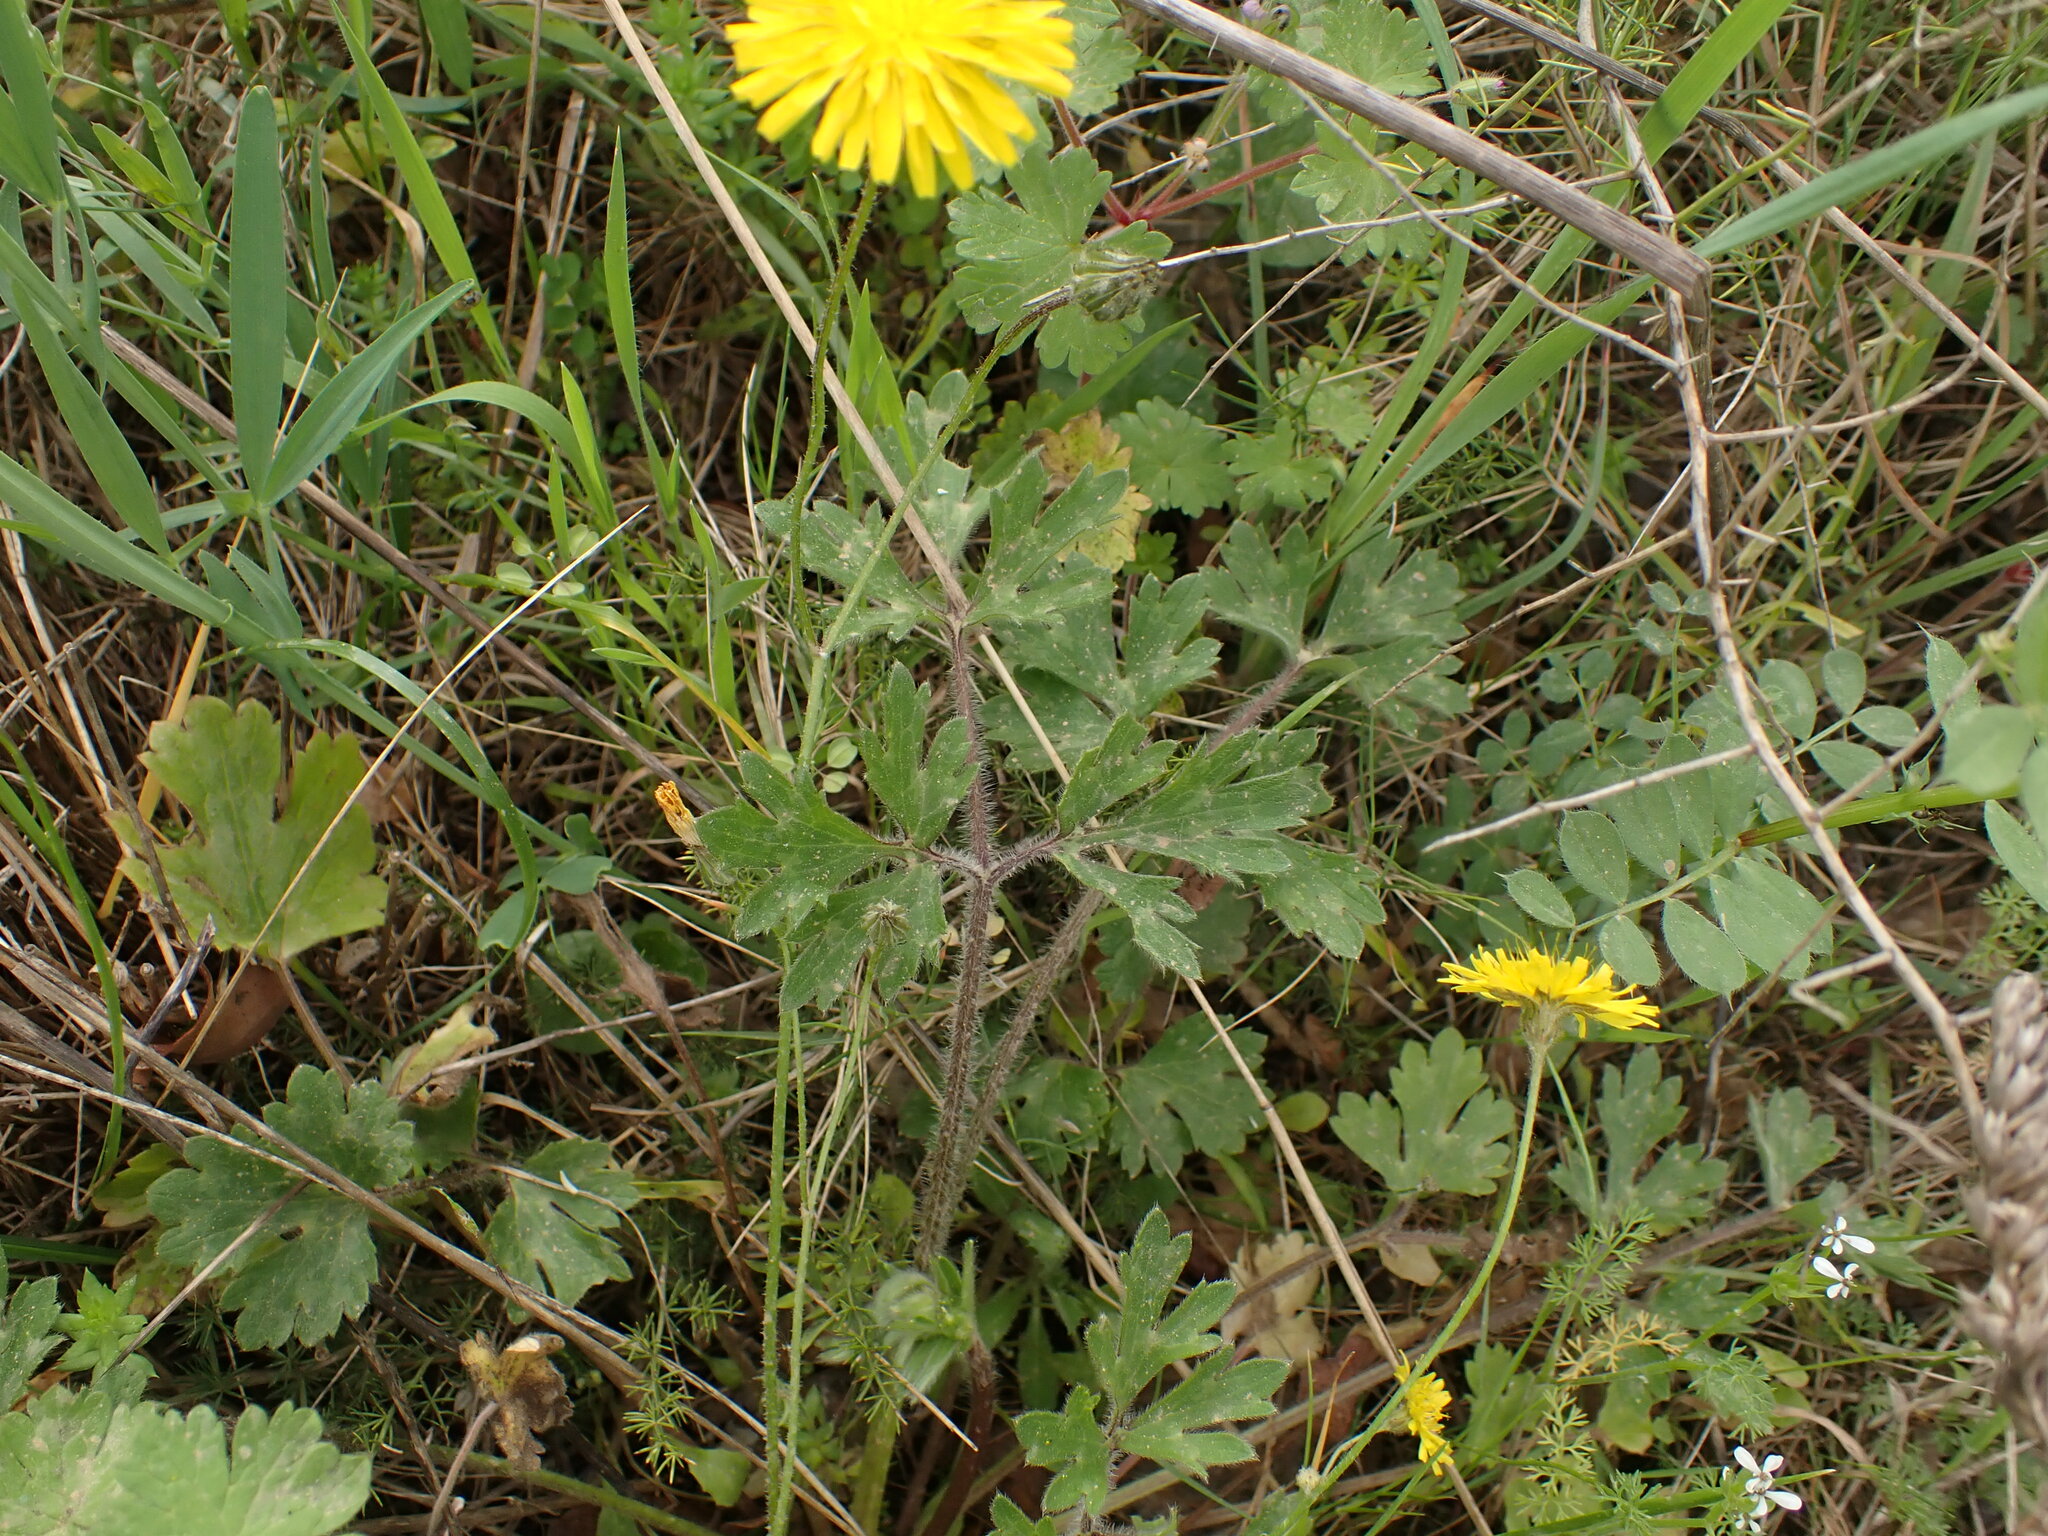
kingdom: Plantae
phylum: Tracheophyta
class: Magnoliopsida
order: Ranunculales
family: Ranunculaceae
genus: Ranunculus
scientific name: Ranunculus bulbosus
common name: Bulbous buttercup
